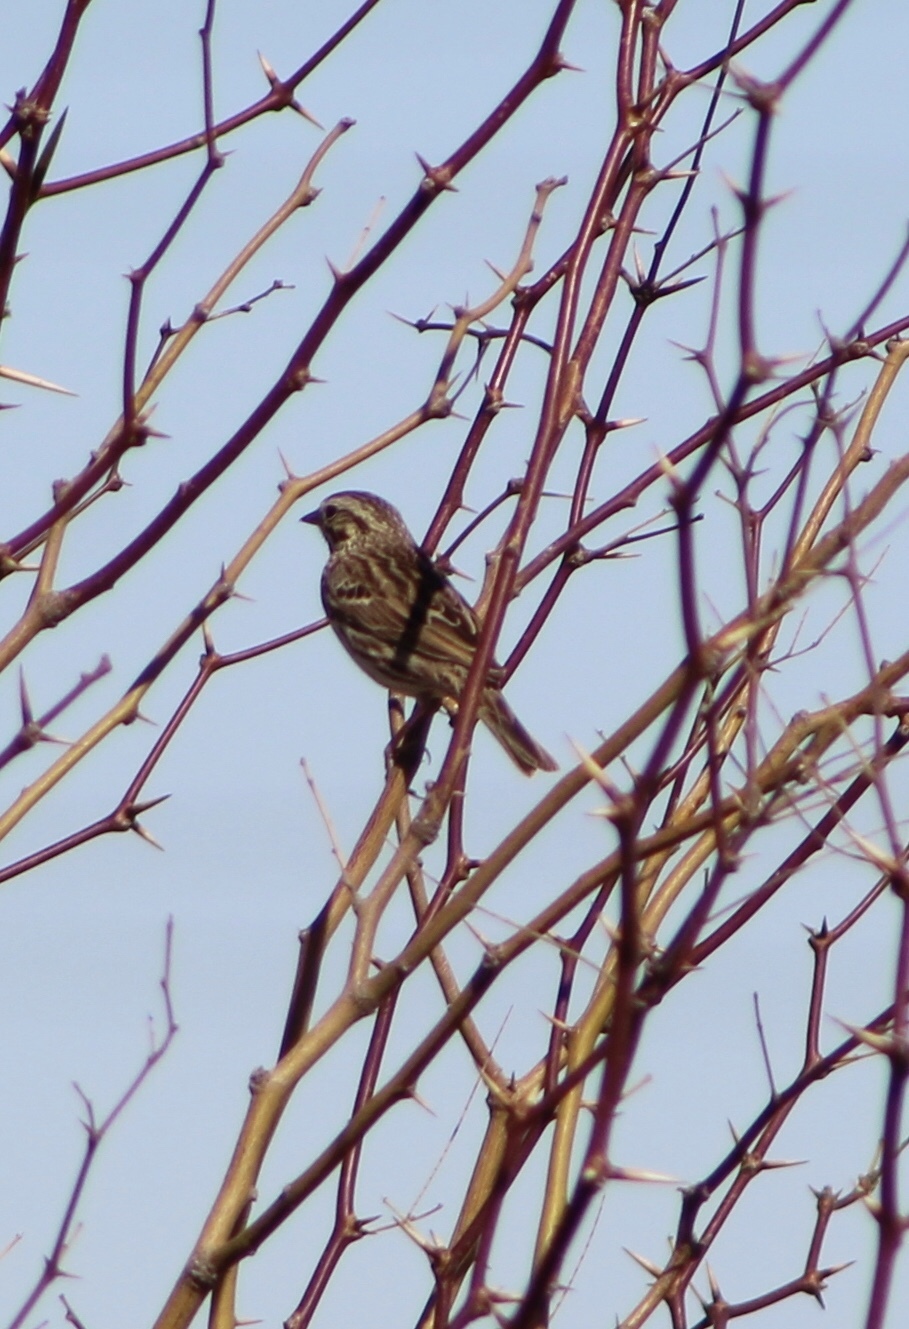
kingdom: Animalia
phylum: Chordata
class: Aves
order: Passeriformes
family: Passerellidae
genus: Passerculus
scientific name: Passerculus sandwichensis
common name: Savannah sparrow
